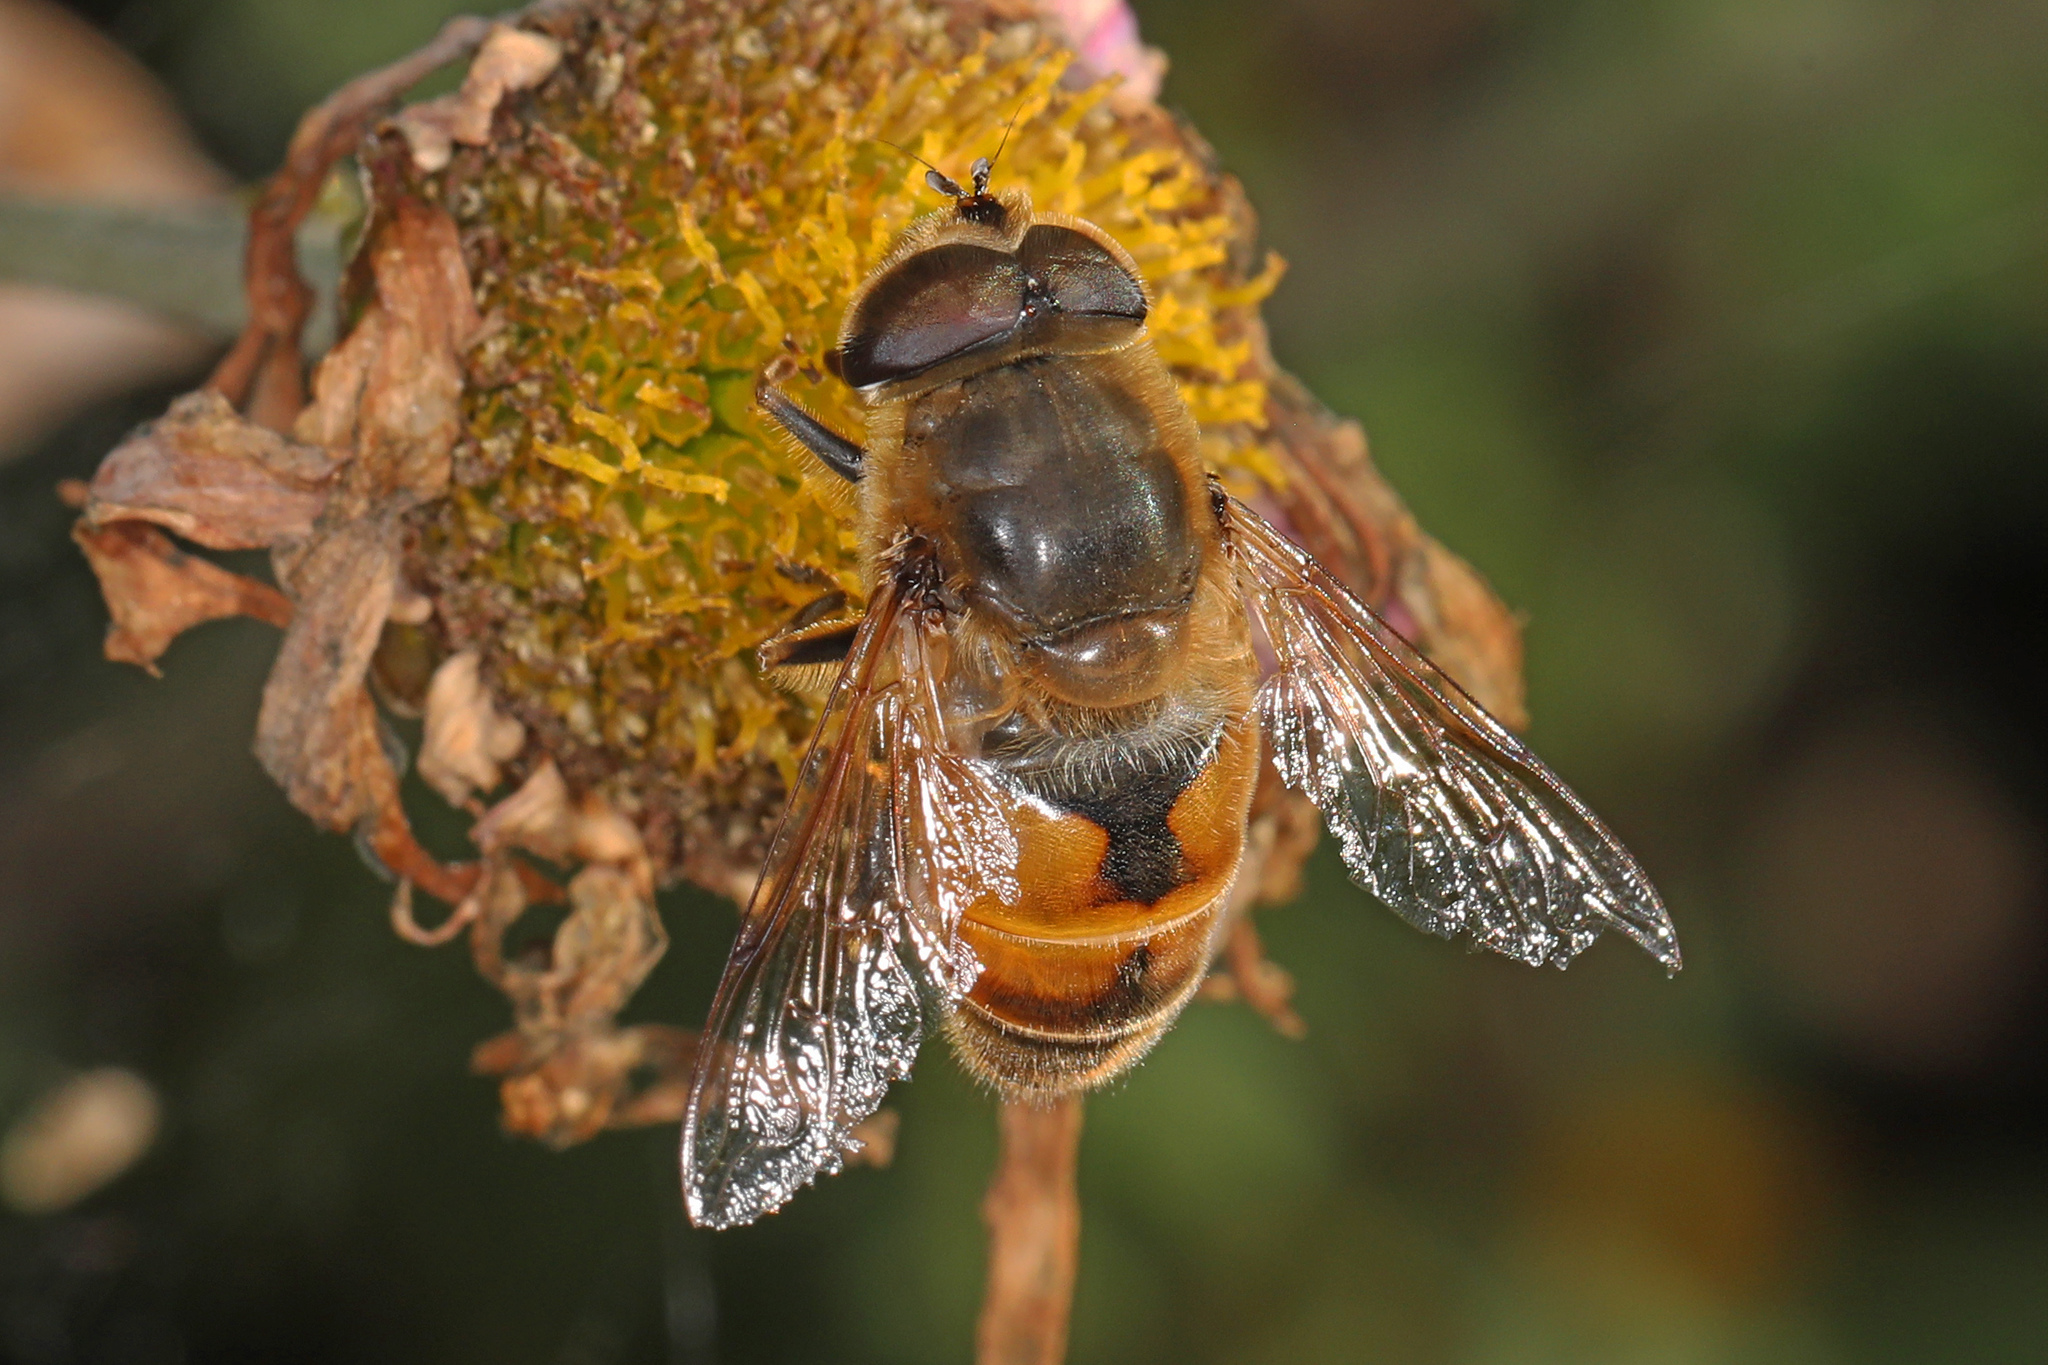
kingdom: Animalia
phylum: Arthropoda
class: Insecta
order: Diptera
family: Syrphidae
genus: Eristalis
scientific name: Eristalis tenax
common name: Drone fly
